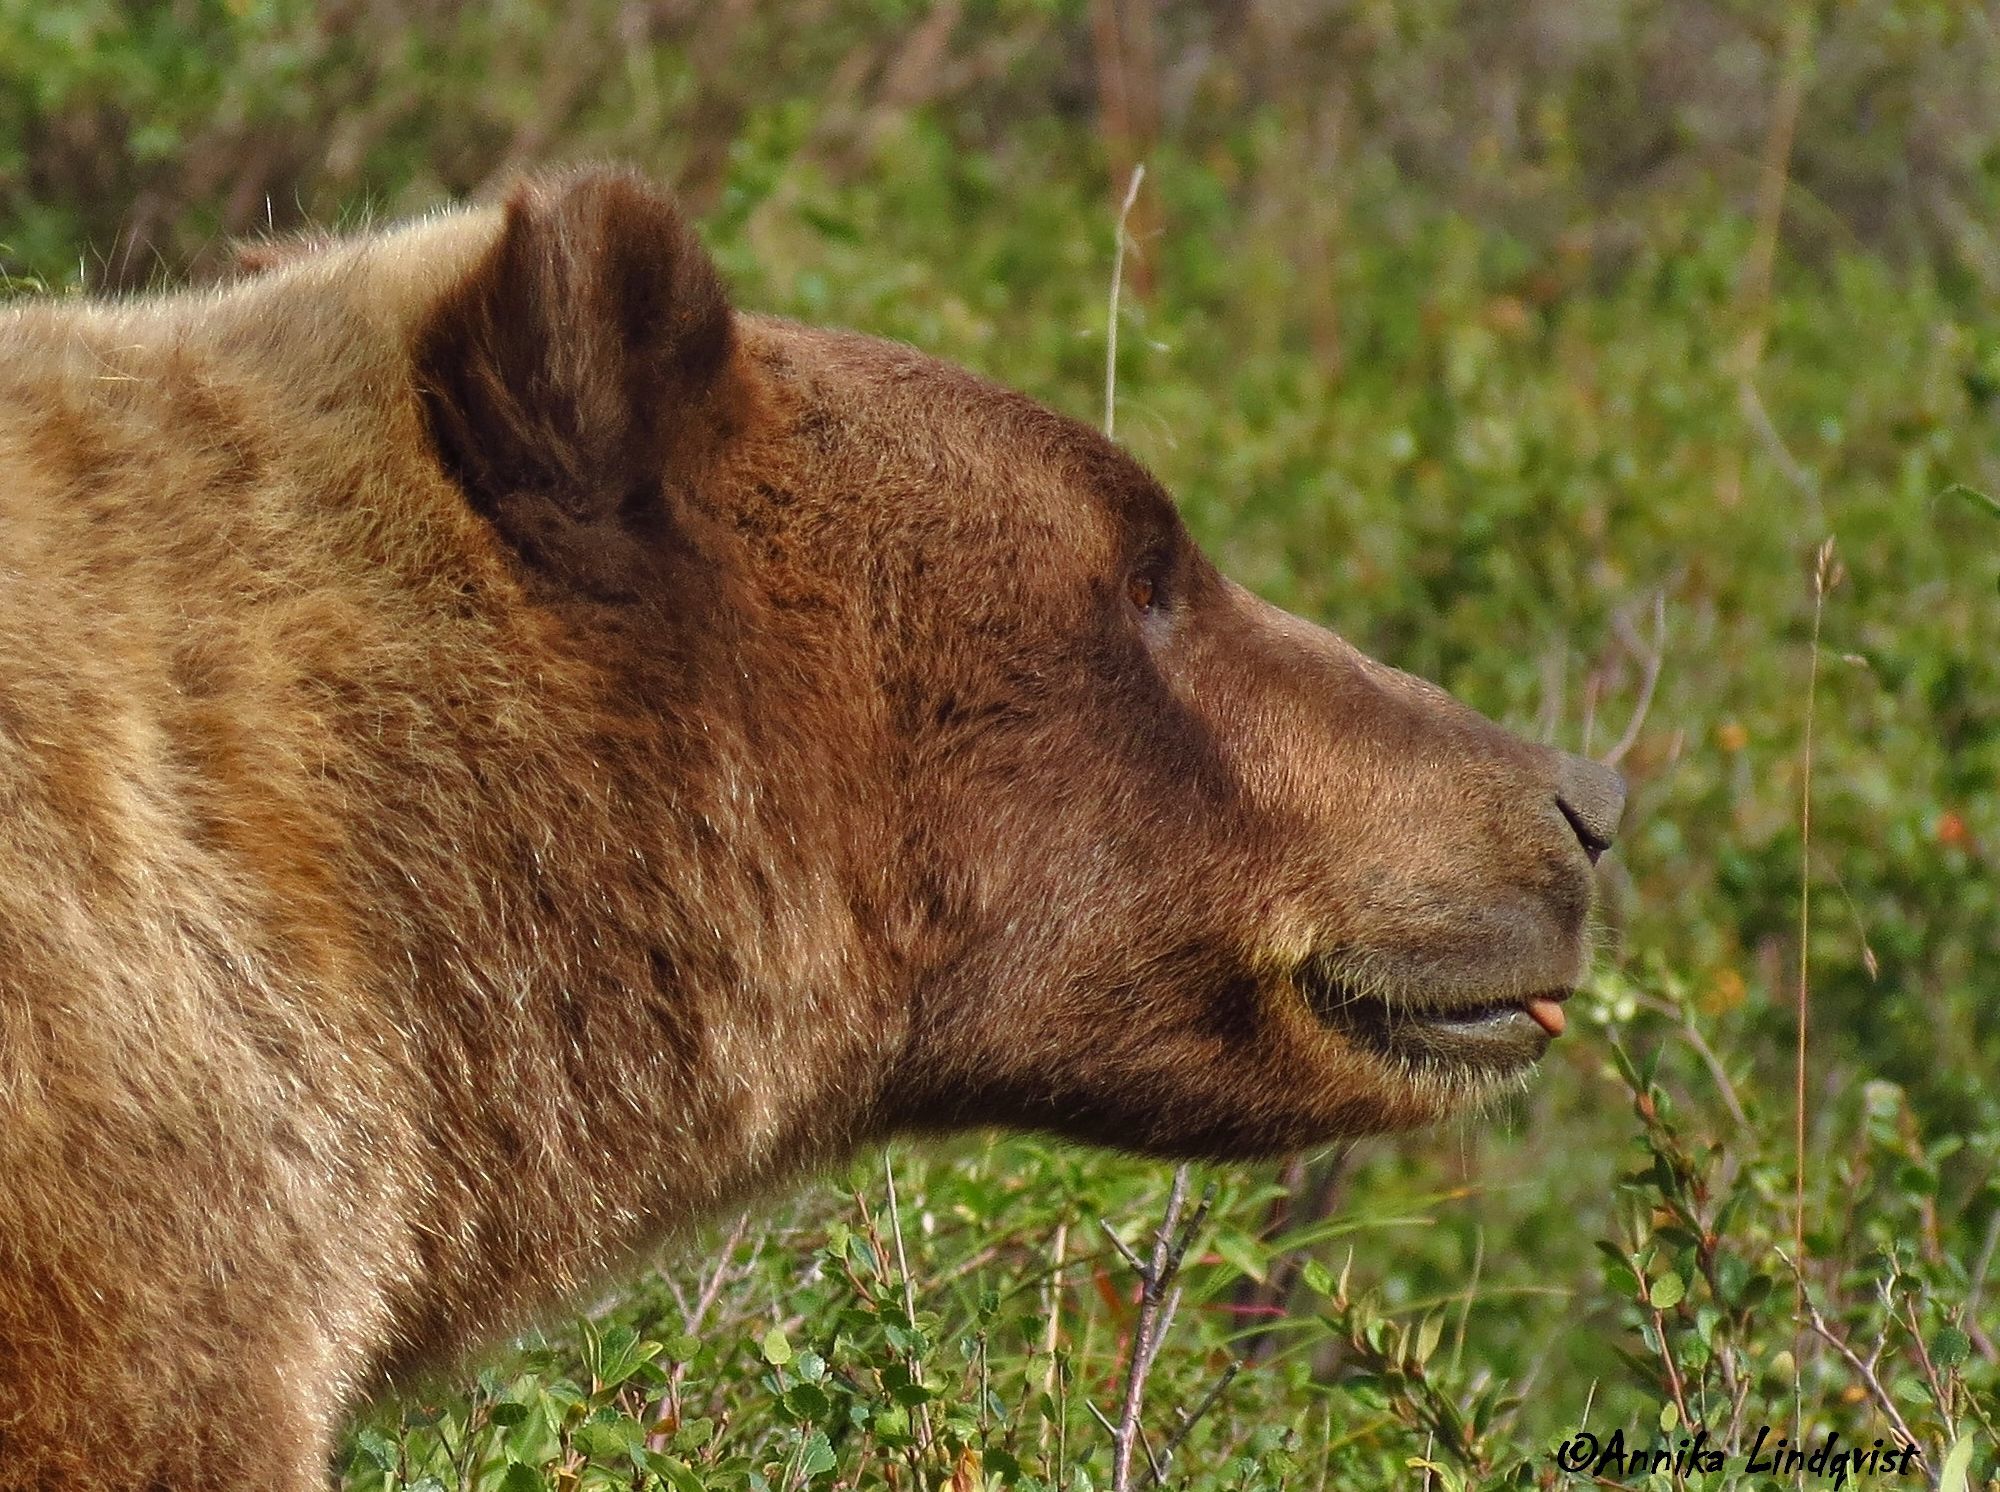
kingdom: Animalia
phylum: Chordata
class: Mammalia
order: Carnivora
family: Ursidae
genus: Ursus
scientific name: Ursus arctos
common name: Brown bear
